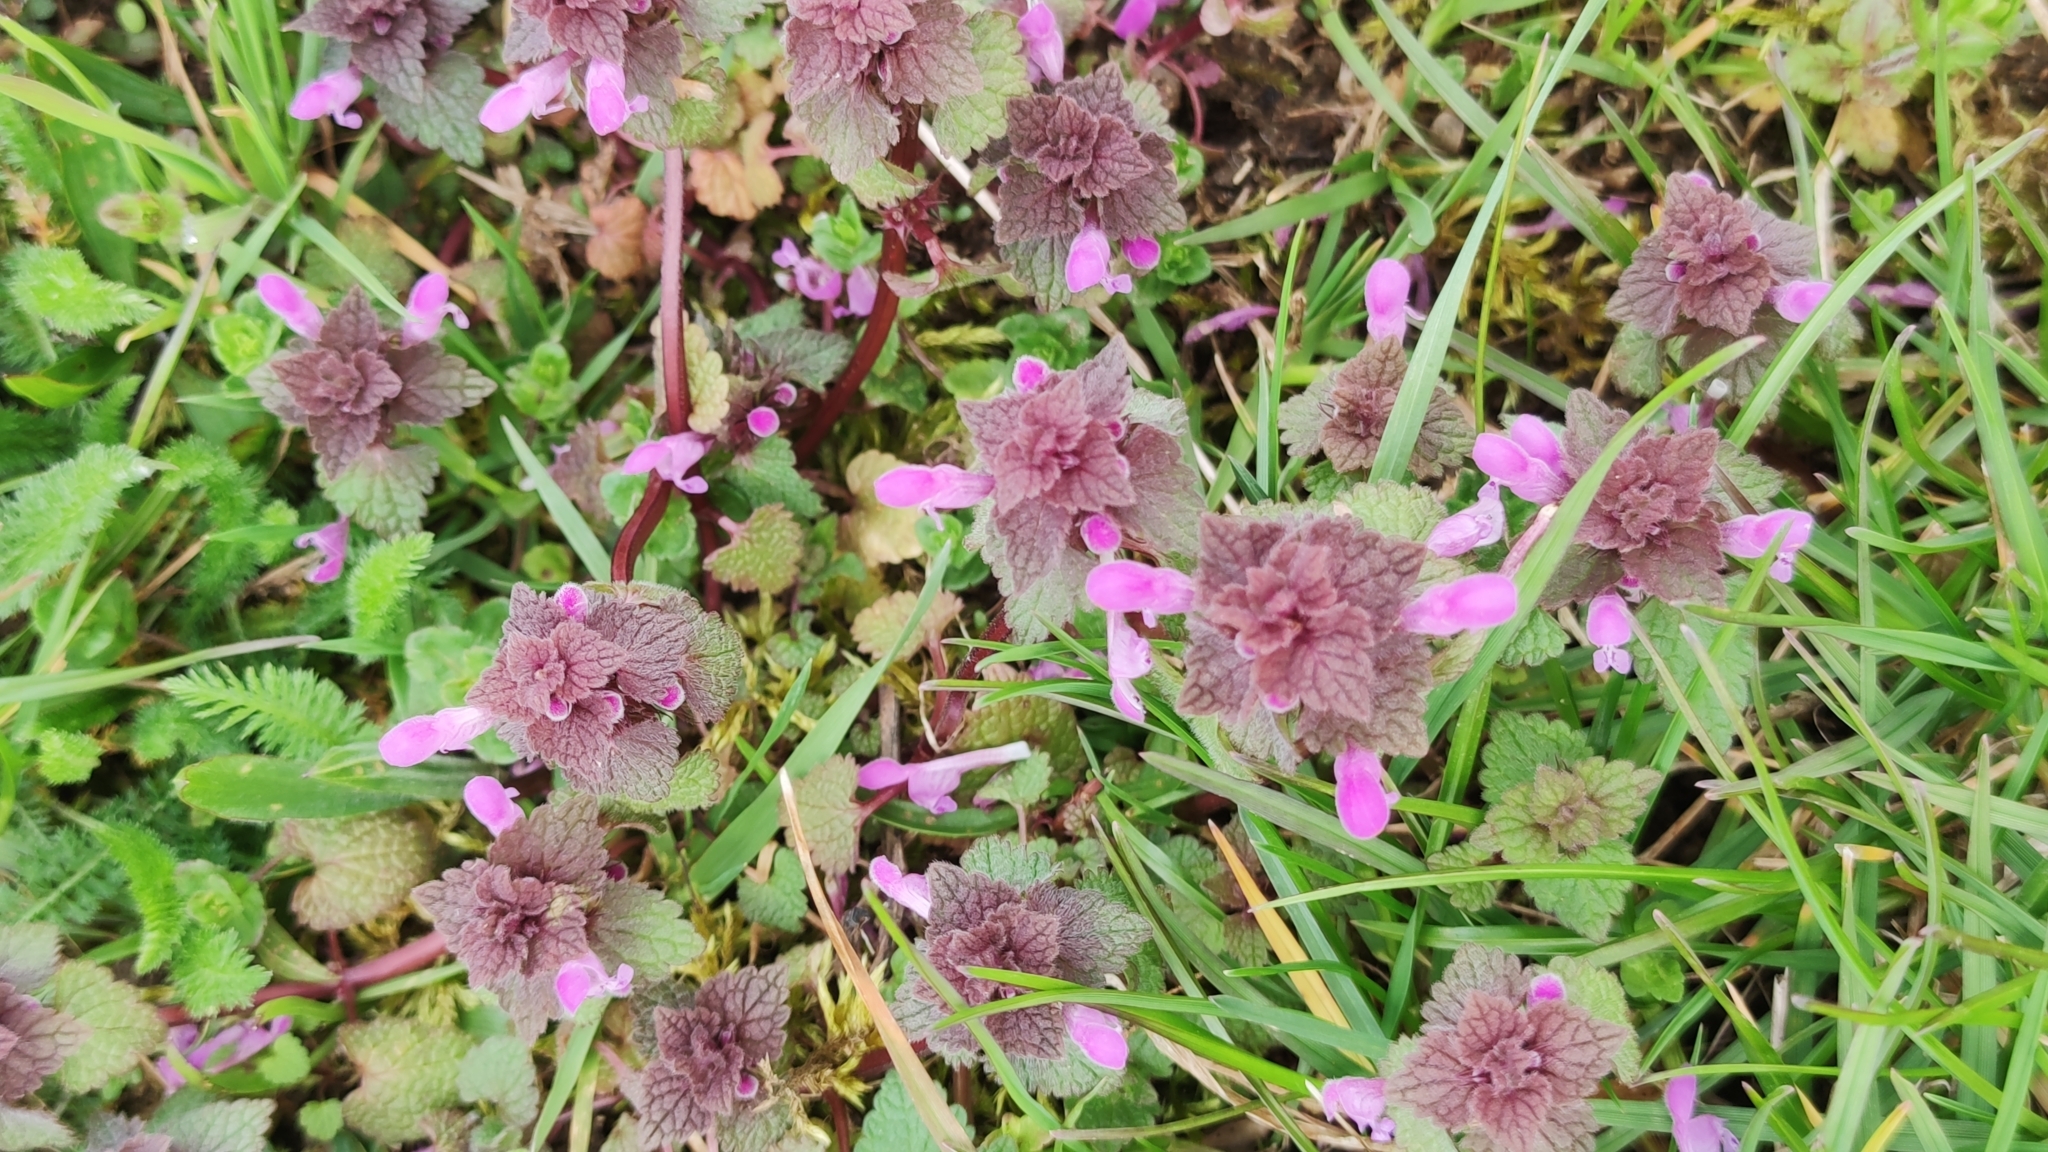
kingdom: Plantae
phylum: Tracheophyta
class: Magnoliopsida
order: Lamiales
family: Lamiaceae
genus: Lamium
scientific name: Lamium purpureum
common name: Red dead-nettle
